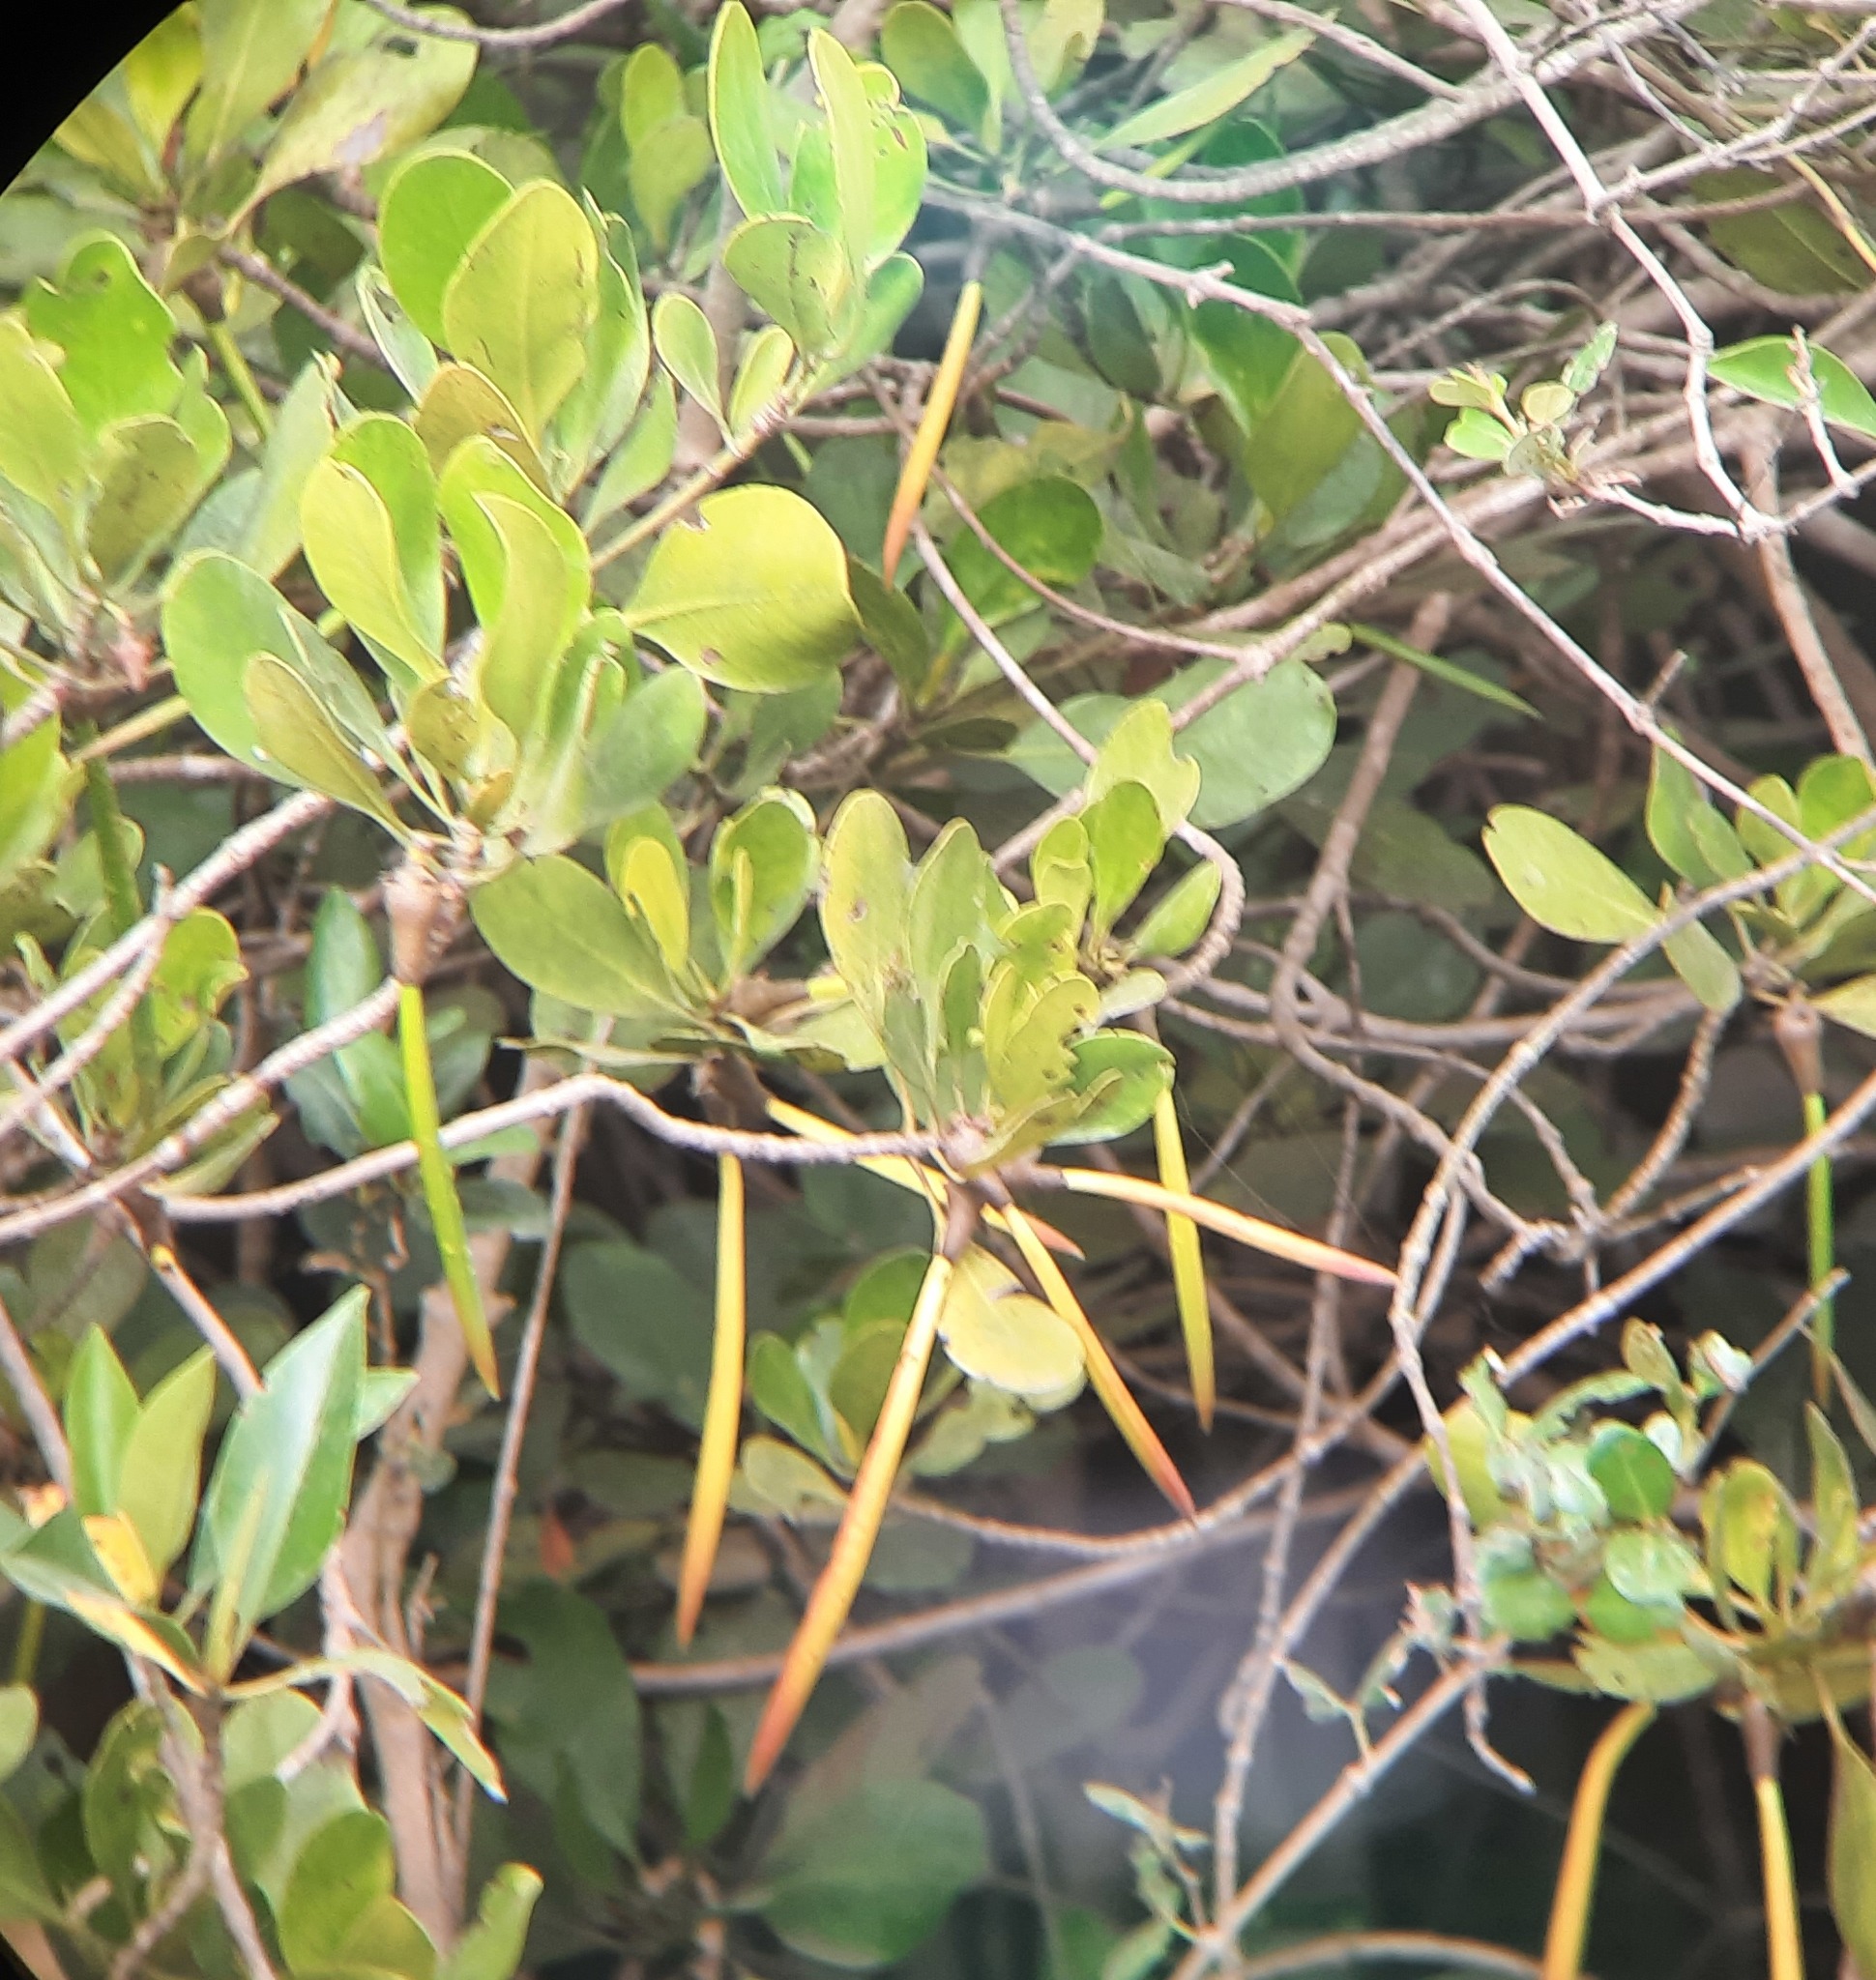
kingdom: Plantae
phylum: Tracheophyta
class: Magnoliopsida
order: Malpighiales
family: Rhizophoraceae
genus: Ceriops
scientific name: Ceriops tagal
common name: Spurred mangrove
